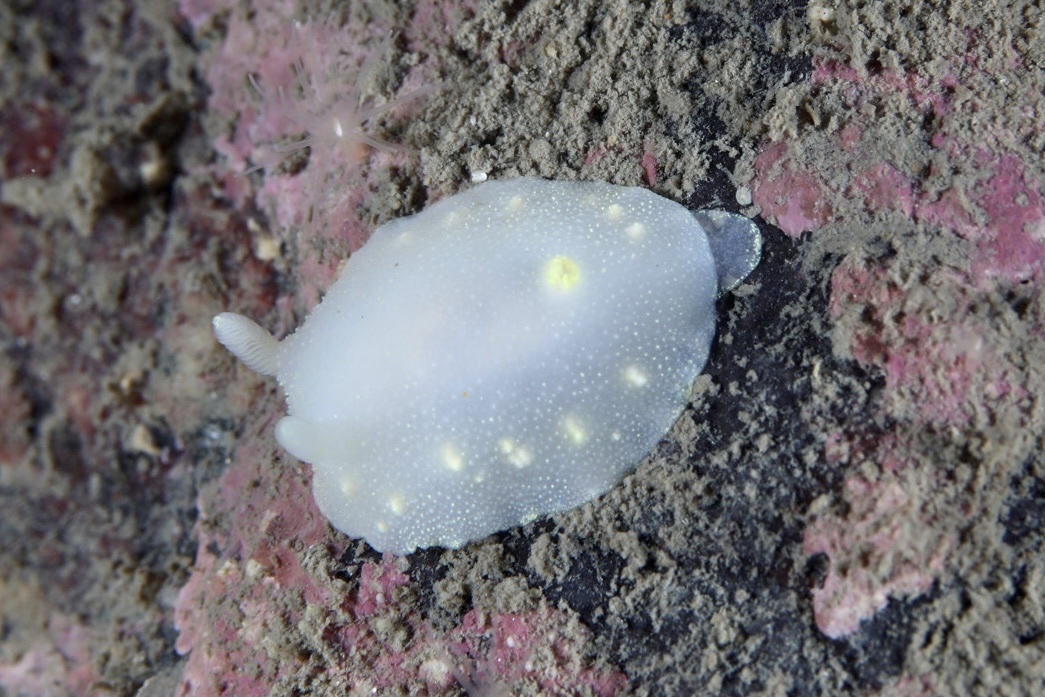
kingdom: Animalia
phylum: Mollusca
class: Gastropoda
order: Nudibranchia
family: Cadlinidae
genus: Cadlina
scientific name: Cadlina laevis
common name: White atlantic cadlina
